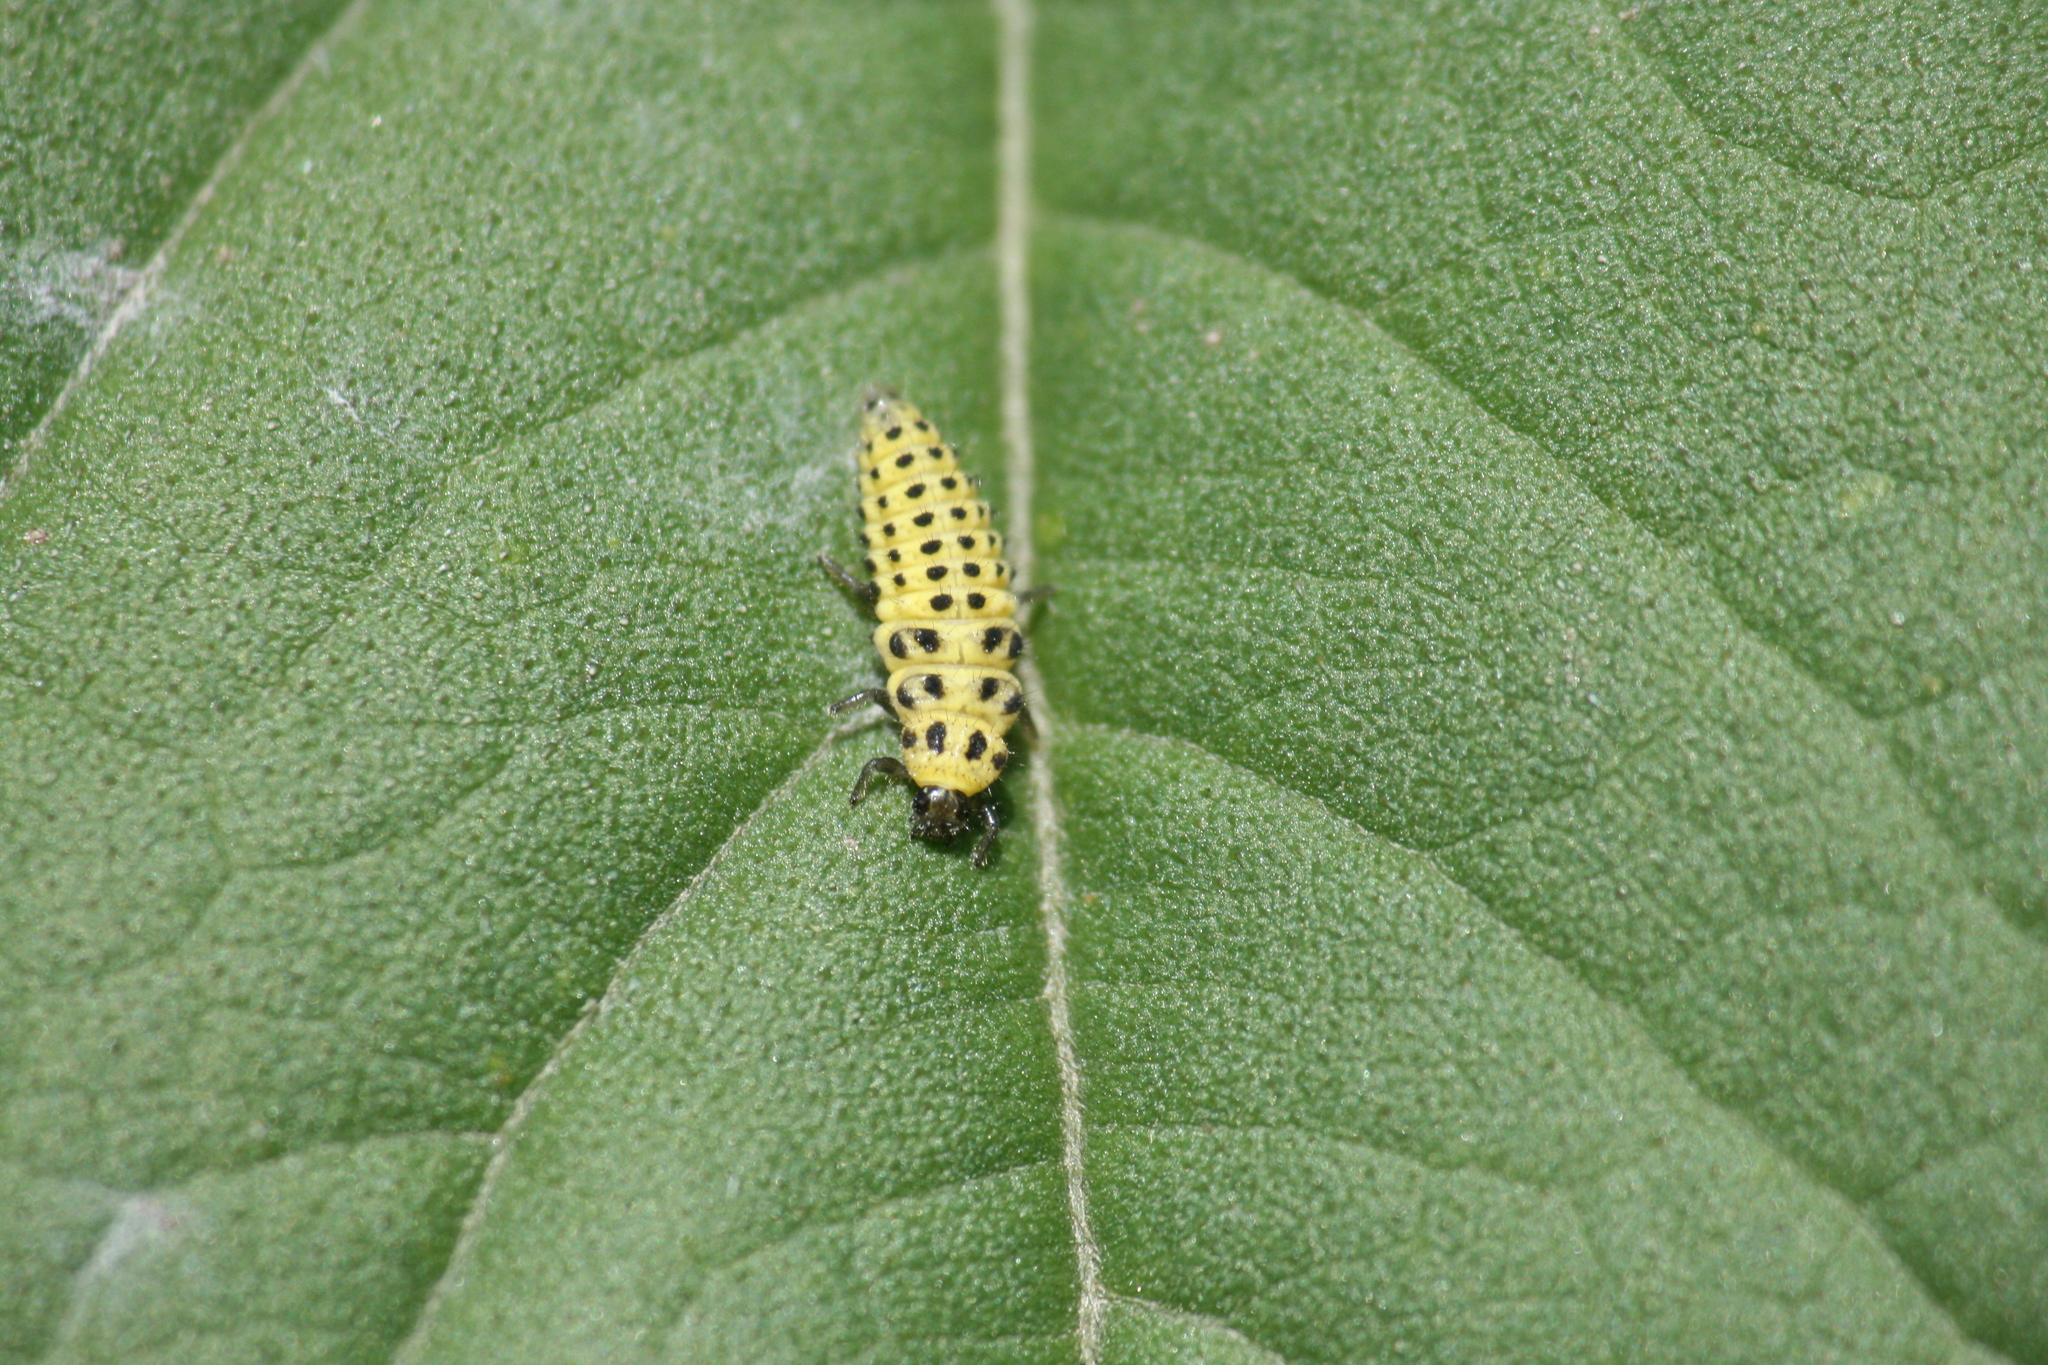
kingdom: Animalia
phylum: Arthropoda
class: Insecta
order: Coleoptera
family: Coccinellidae
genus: Psyllobora
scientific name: Psyllobora vigintiduopunctata
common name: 22-spot ladybird
